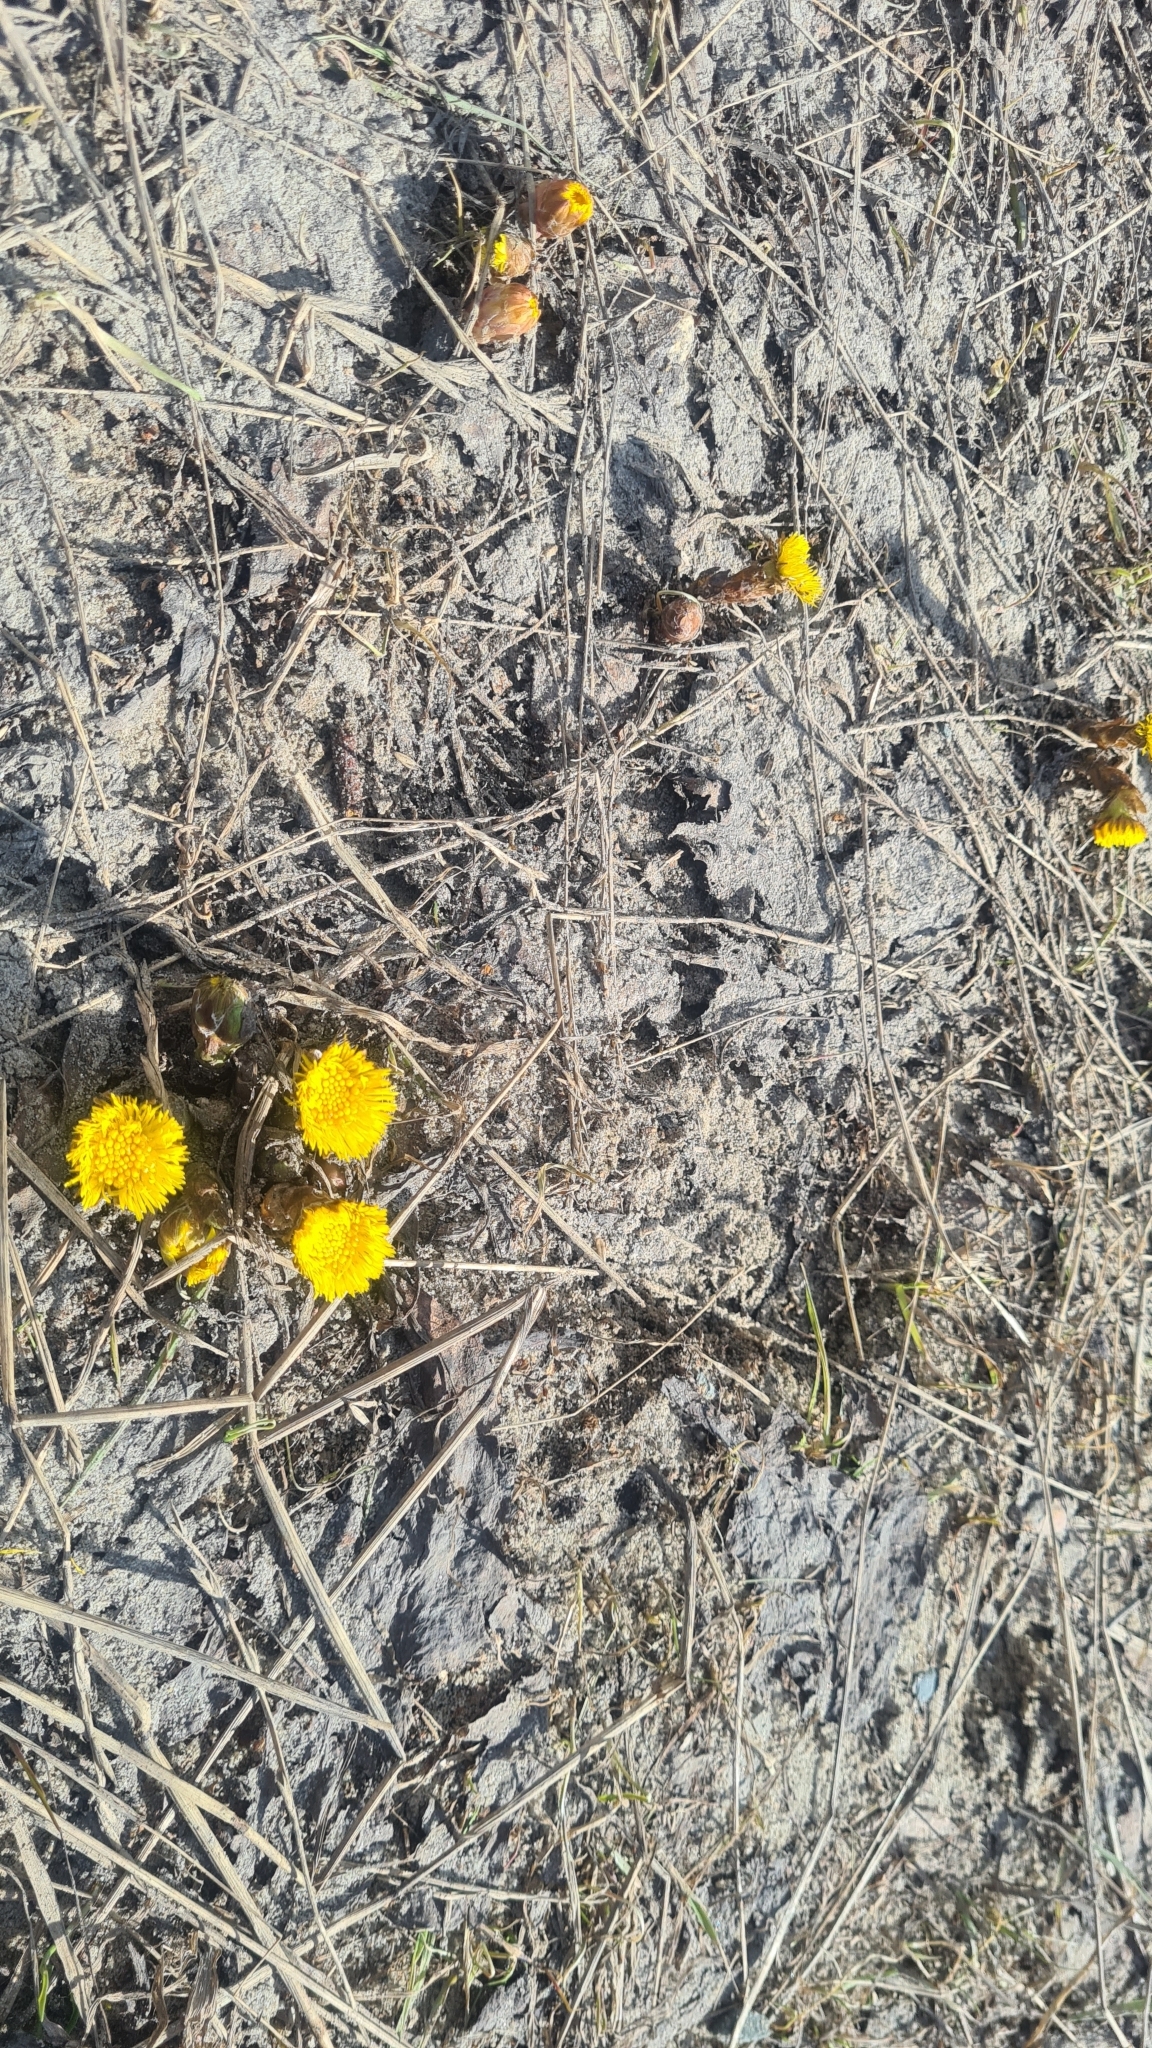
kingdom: Plantae
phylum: Tracheophyta
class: Magnoliopsida
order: Asterales
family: Asteraceae
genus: Tussilago
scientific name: Tussilago farfara
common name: Coltsfoot
